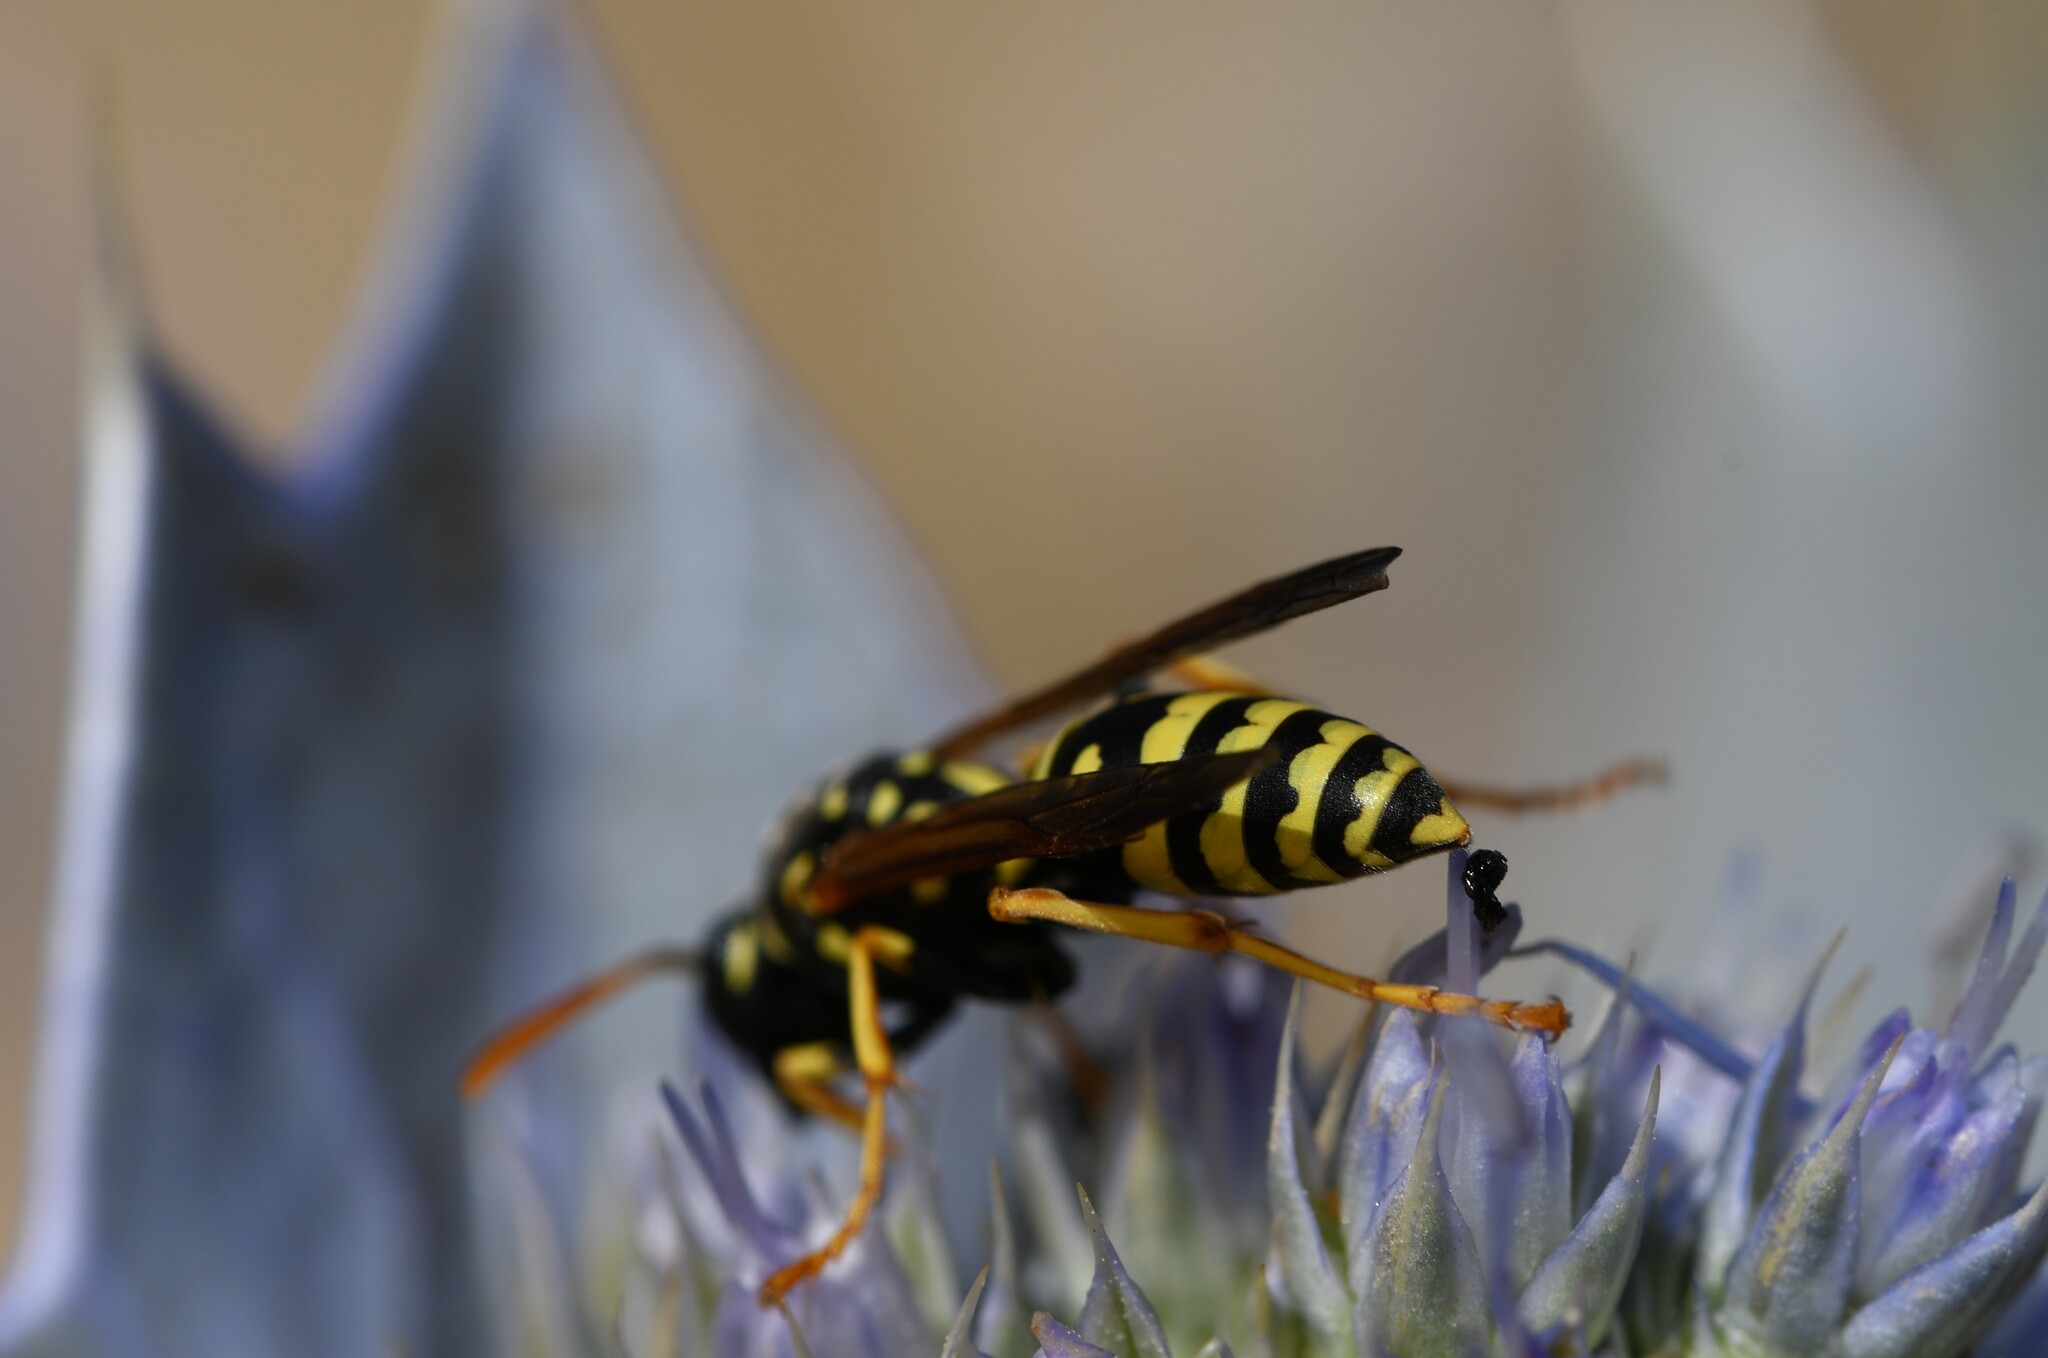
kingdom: Animalia
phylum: Arthropoda
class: Insecta
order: Hymenoptera
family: Eumenidae
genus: Polistes
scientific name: Polistes gallicus
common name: Paper wasp
